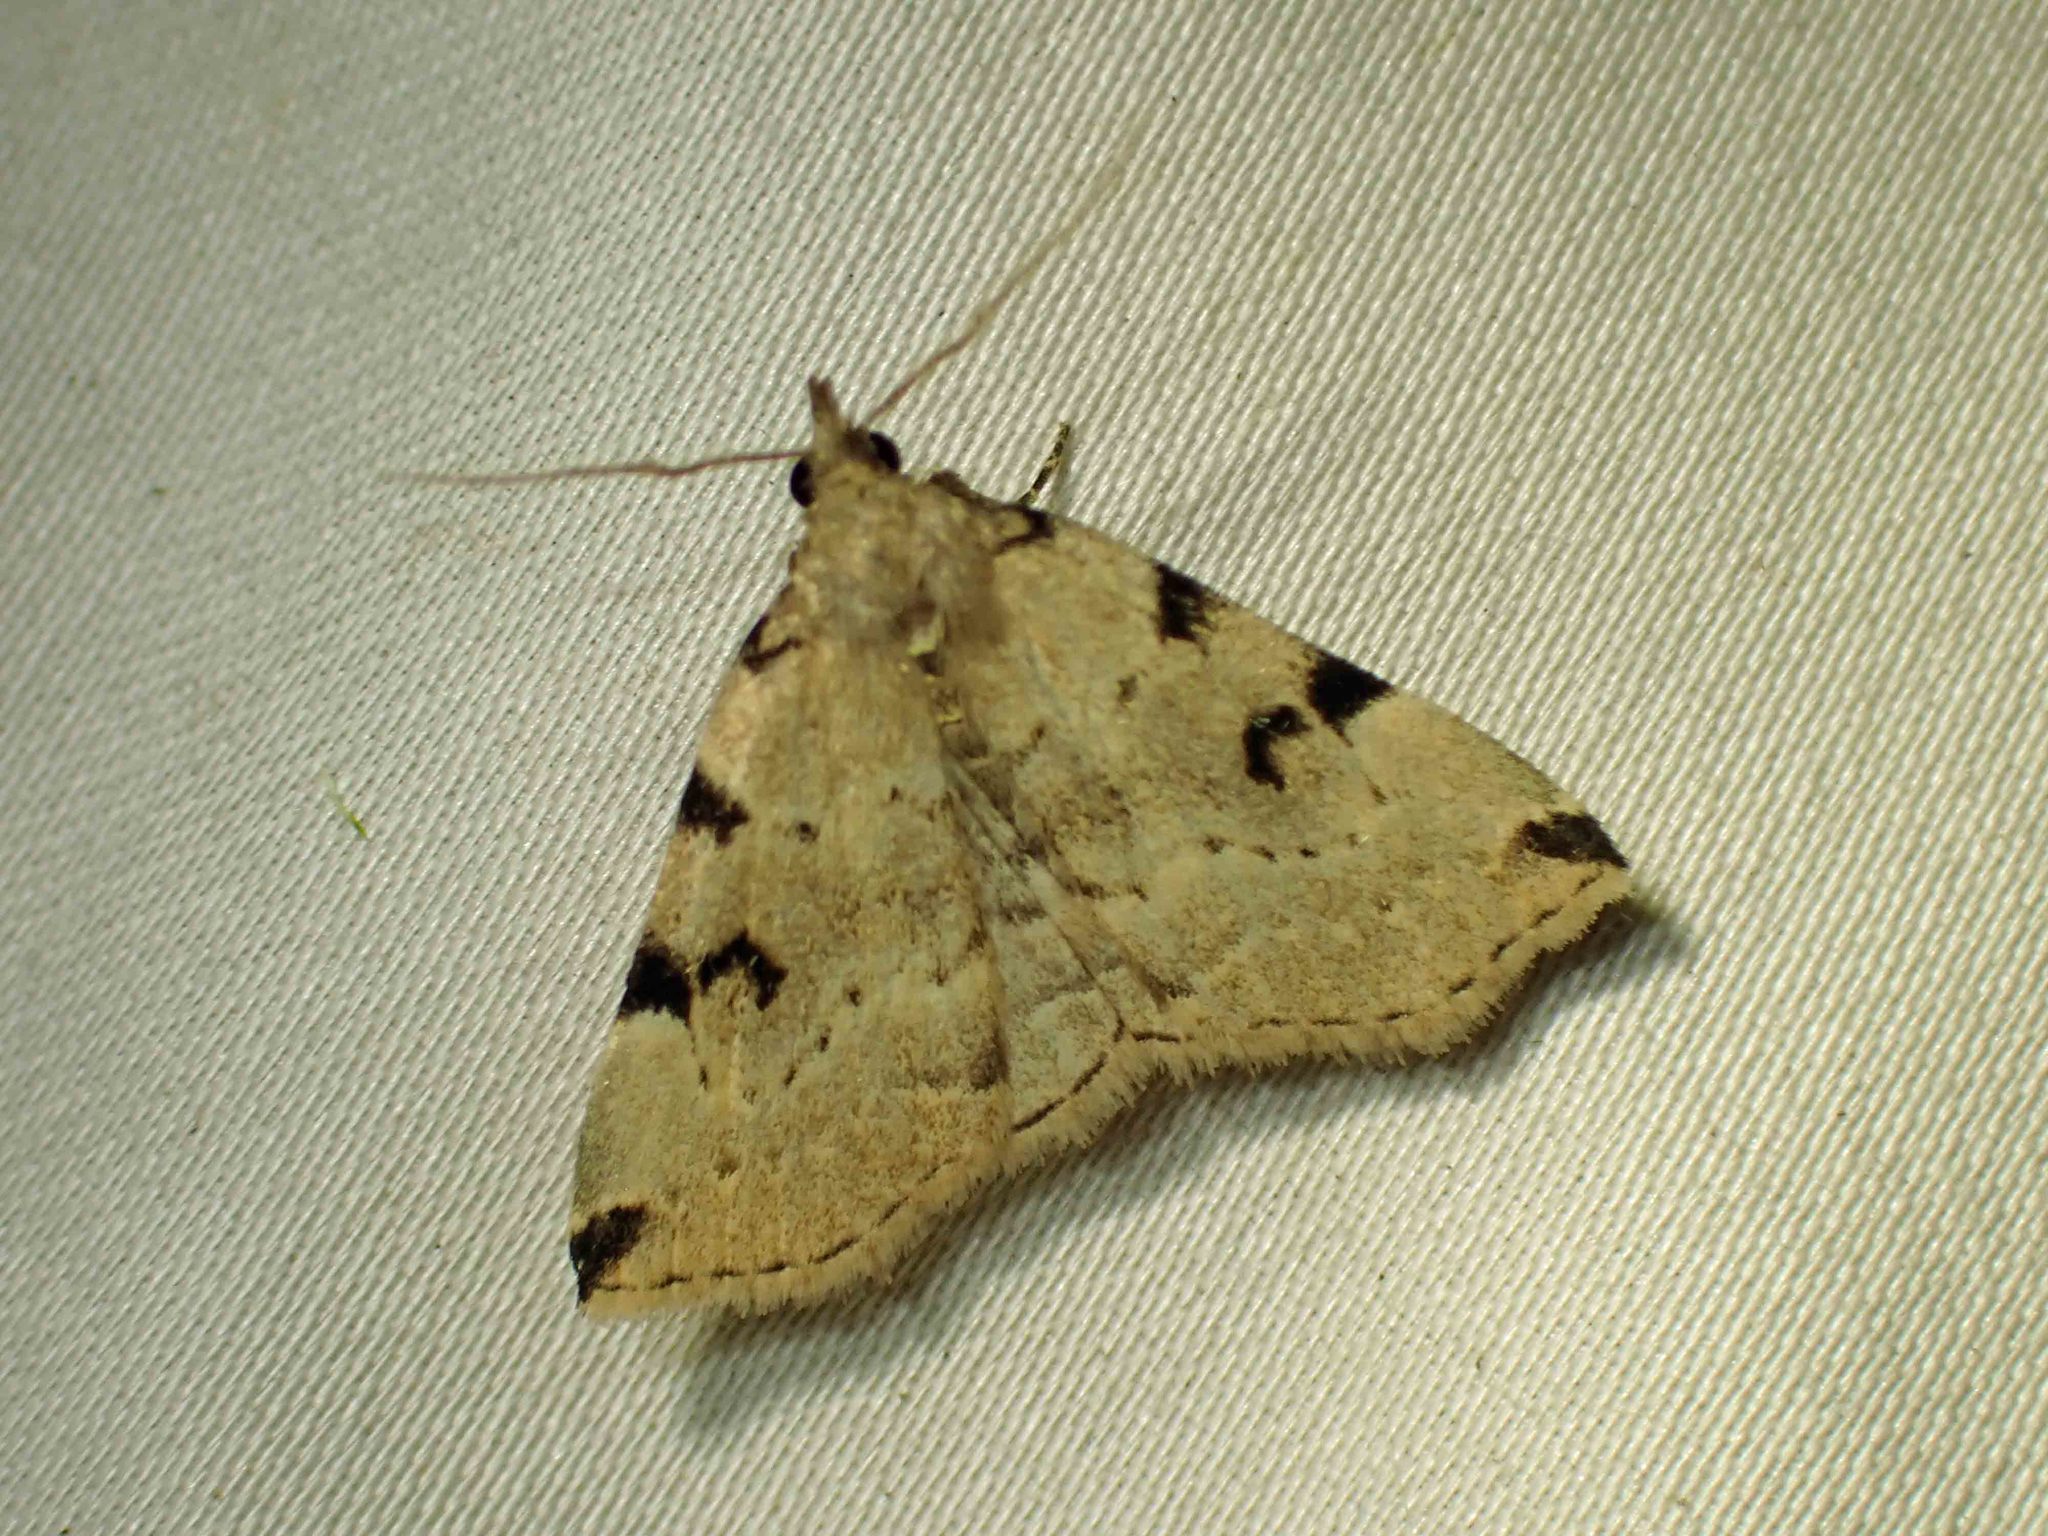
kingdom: Animalia
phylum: Arthropoda
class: Insecta
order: Lepidoptera
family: Erebidae
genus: Zanclognatha
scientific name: Zanclognatha theralis
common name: Flagged fan-foot
